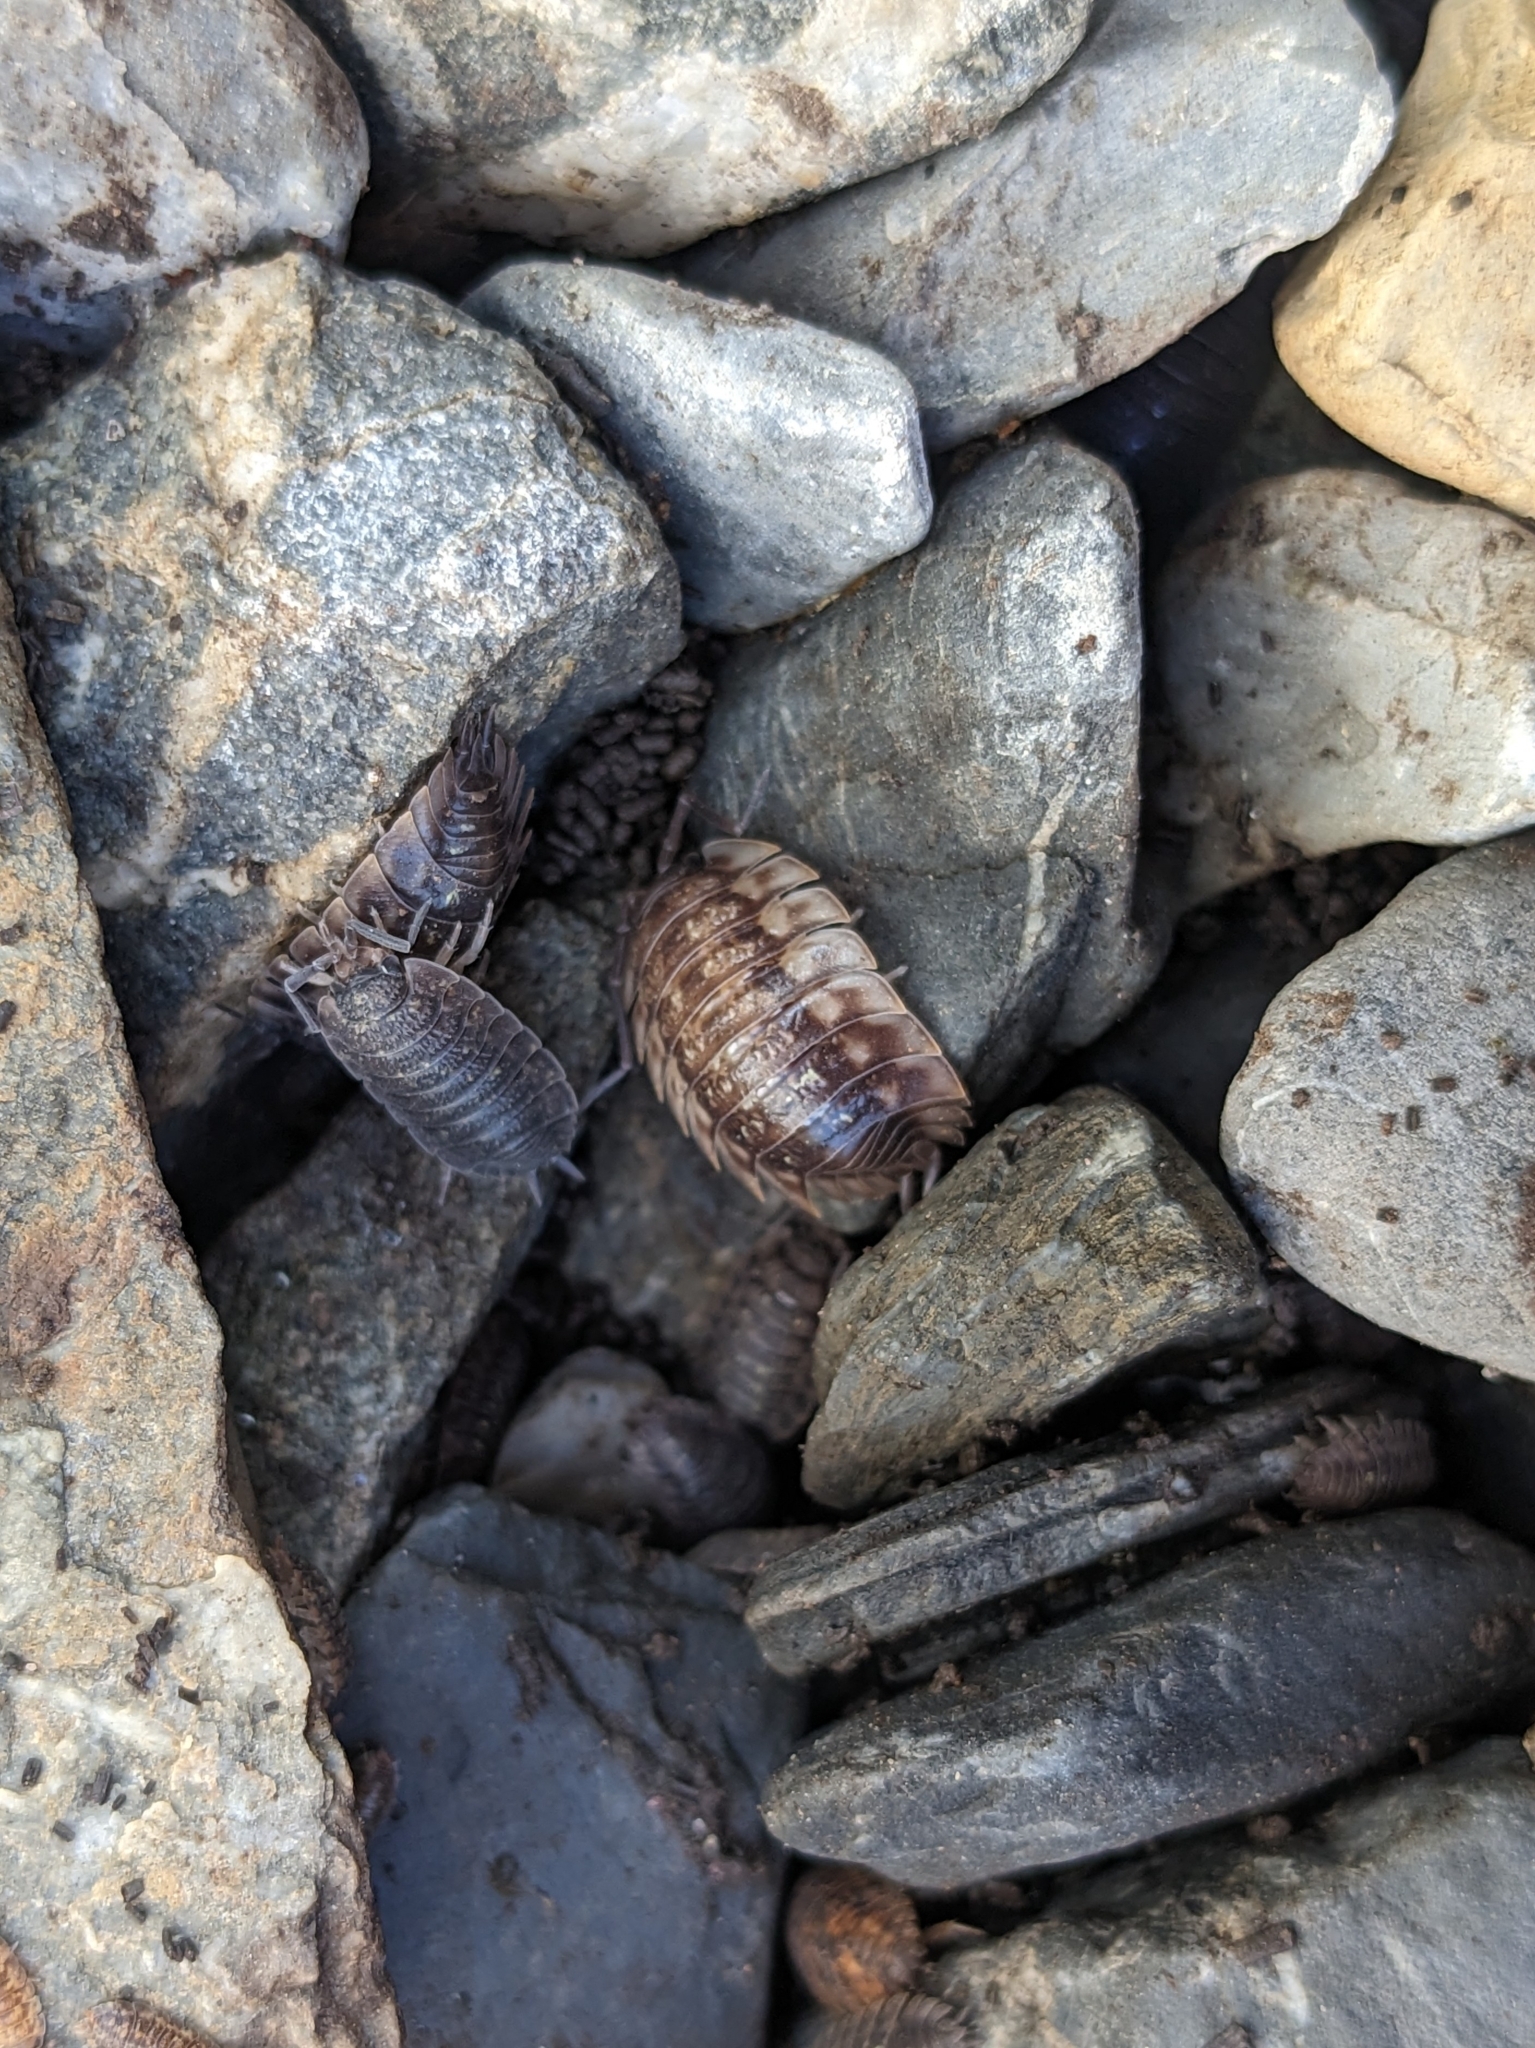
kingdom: Animalia
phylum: Arthropoda
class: Malacostraca
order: Isopoda
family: Oniscidae
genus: Oniscus
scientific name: Oniscus asellus
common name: Common shiny woodlouse
